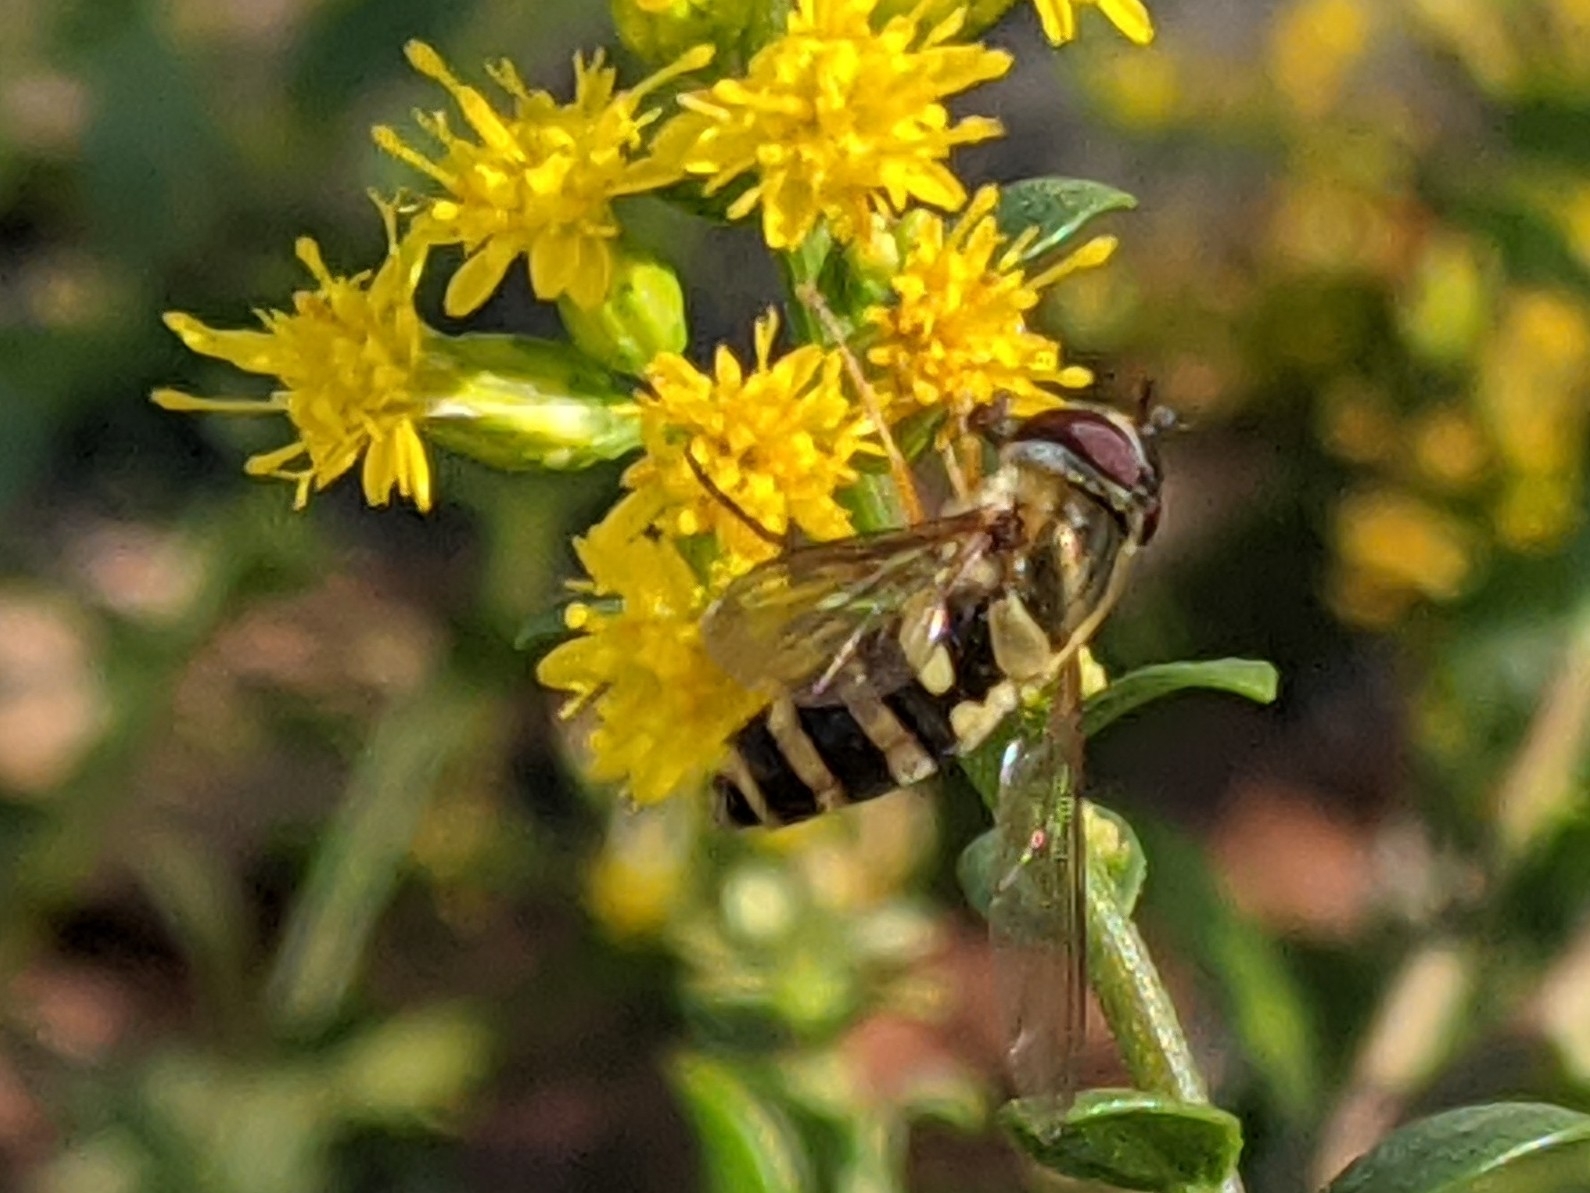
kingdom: Animalia
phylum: Arthropoda
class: Insecta
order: Diptera
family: Syrphidae
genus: Syrphus
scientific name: Syrphus
